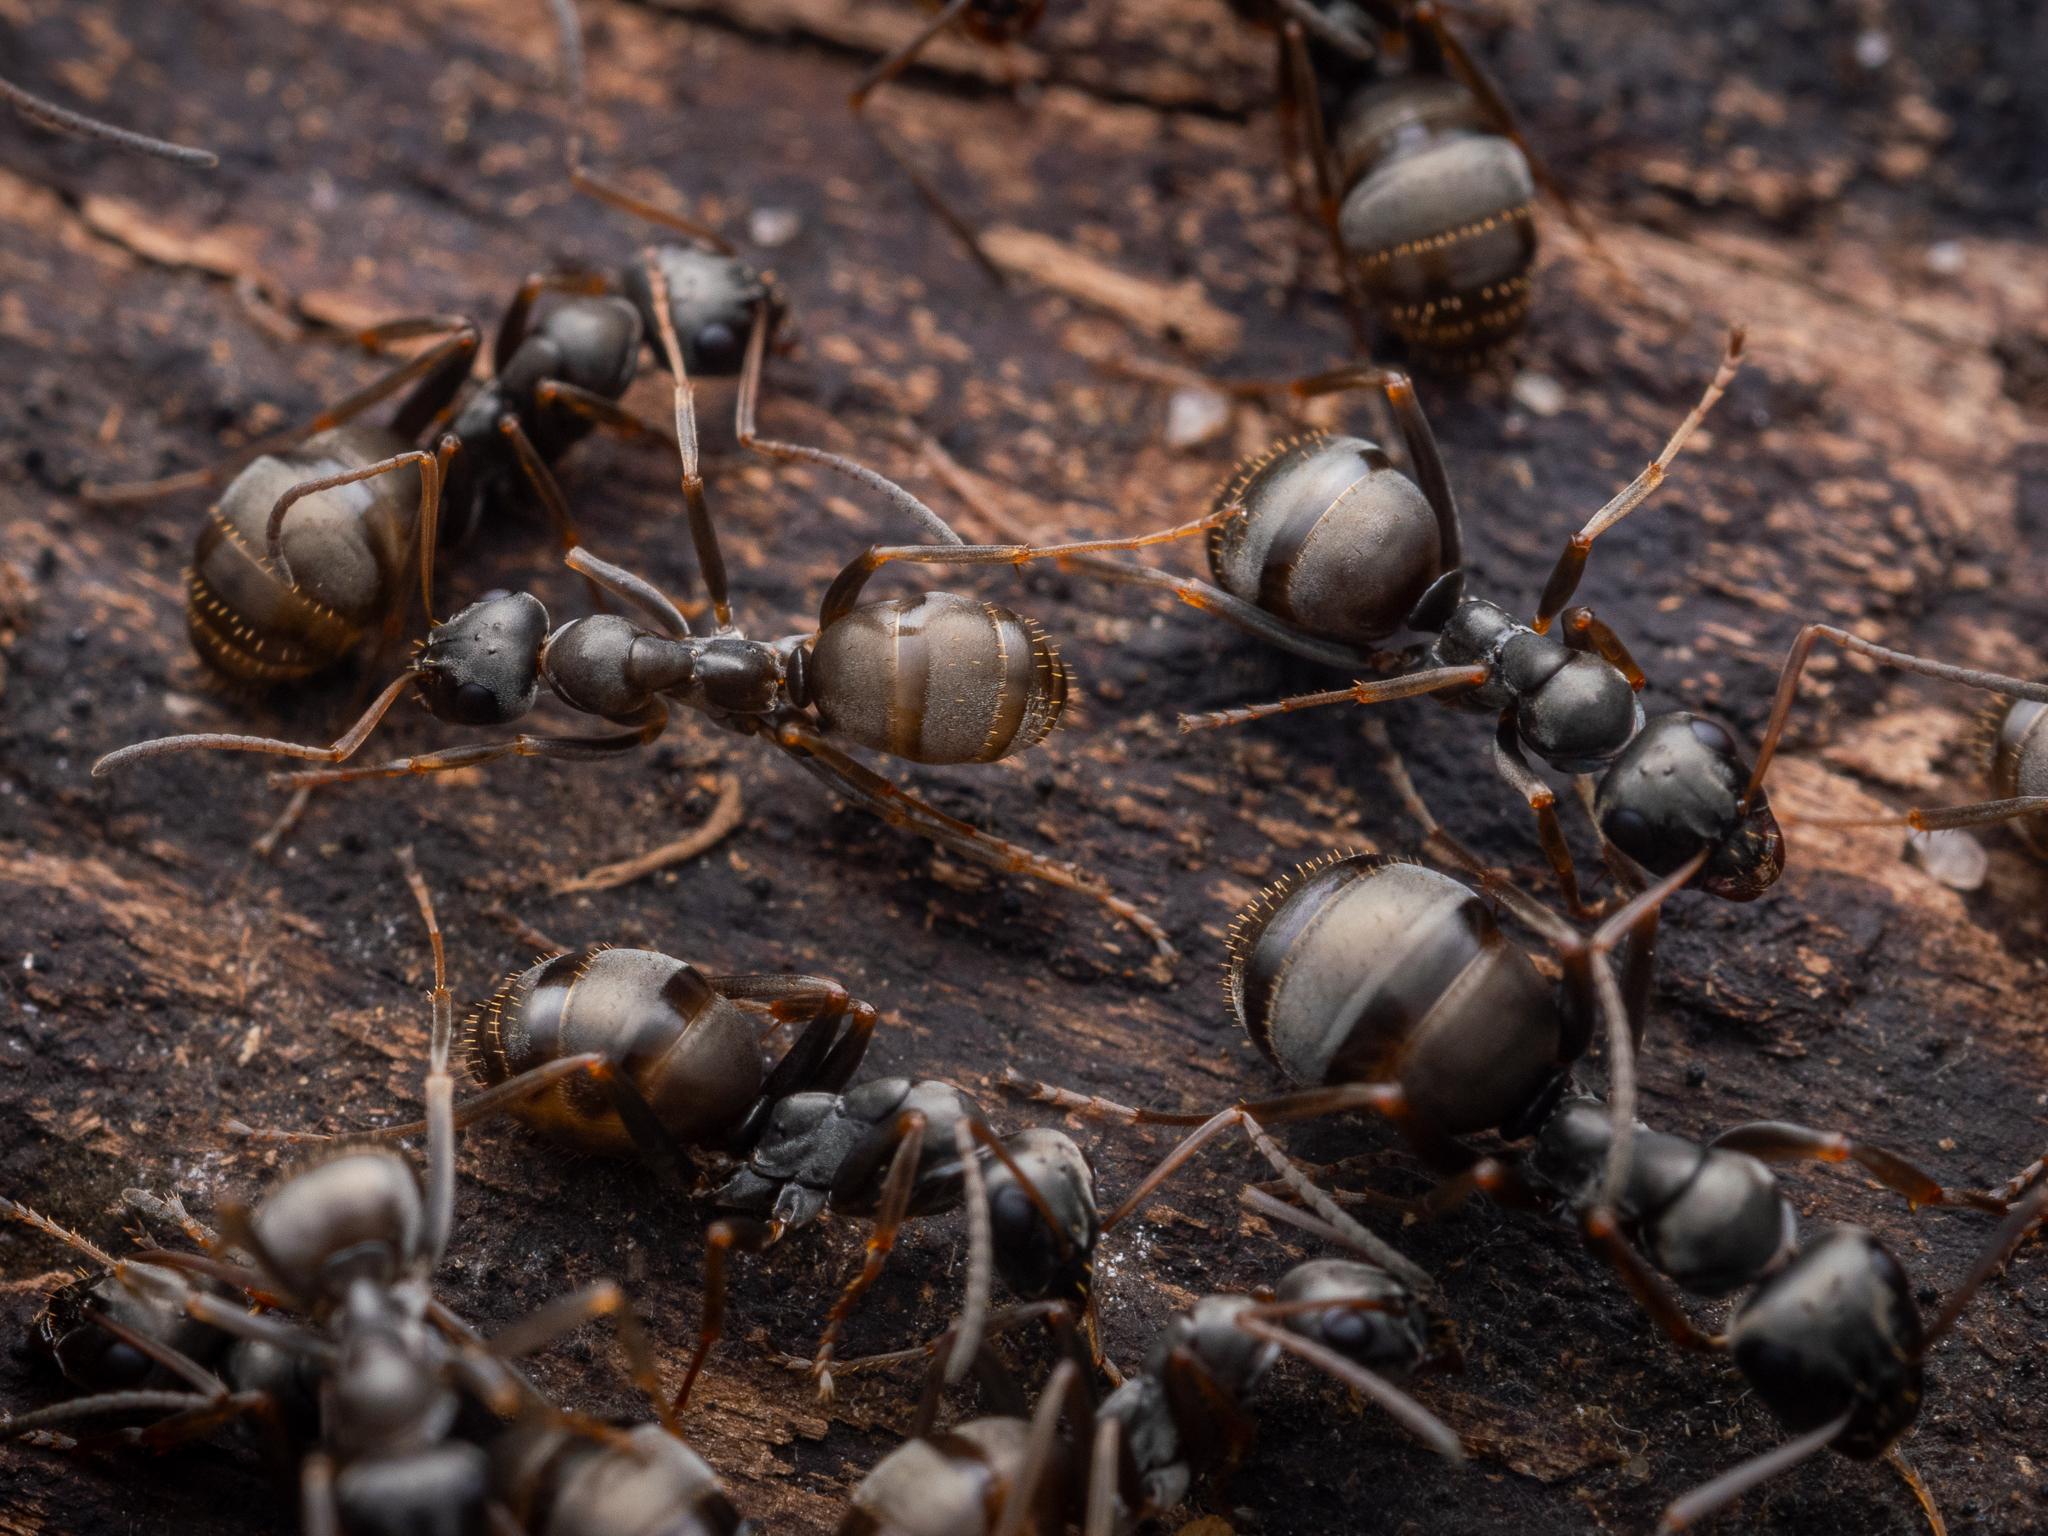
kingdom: Animalia
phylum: Arthropoda
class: Insecta
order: Hymenoptera
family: Formicidae
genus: Formica
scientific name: Formica fusca
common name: Silky ant
